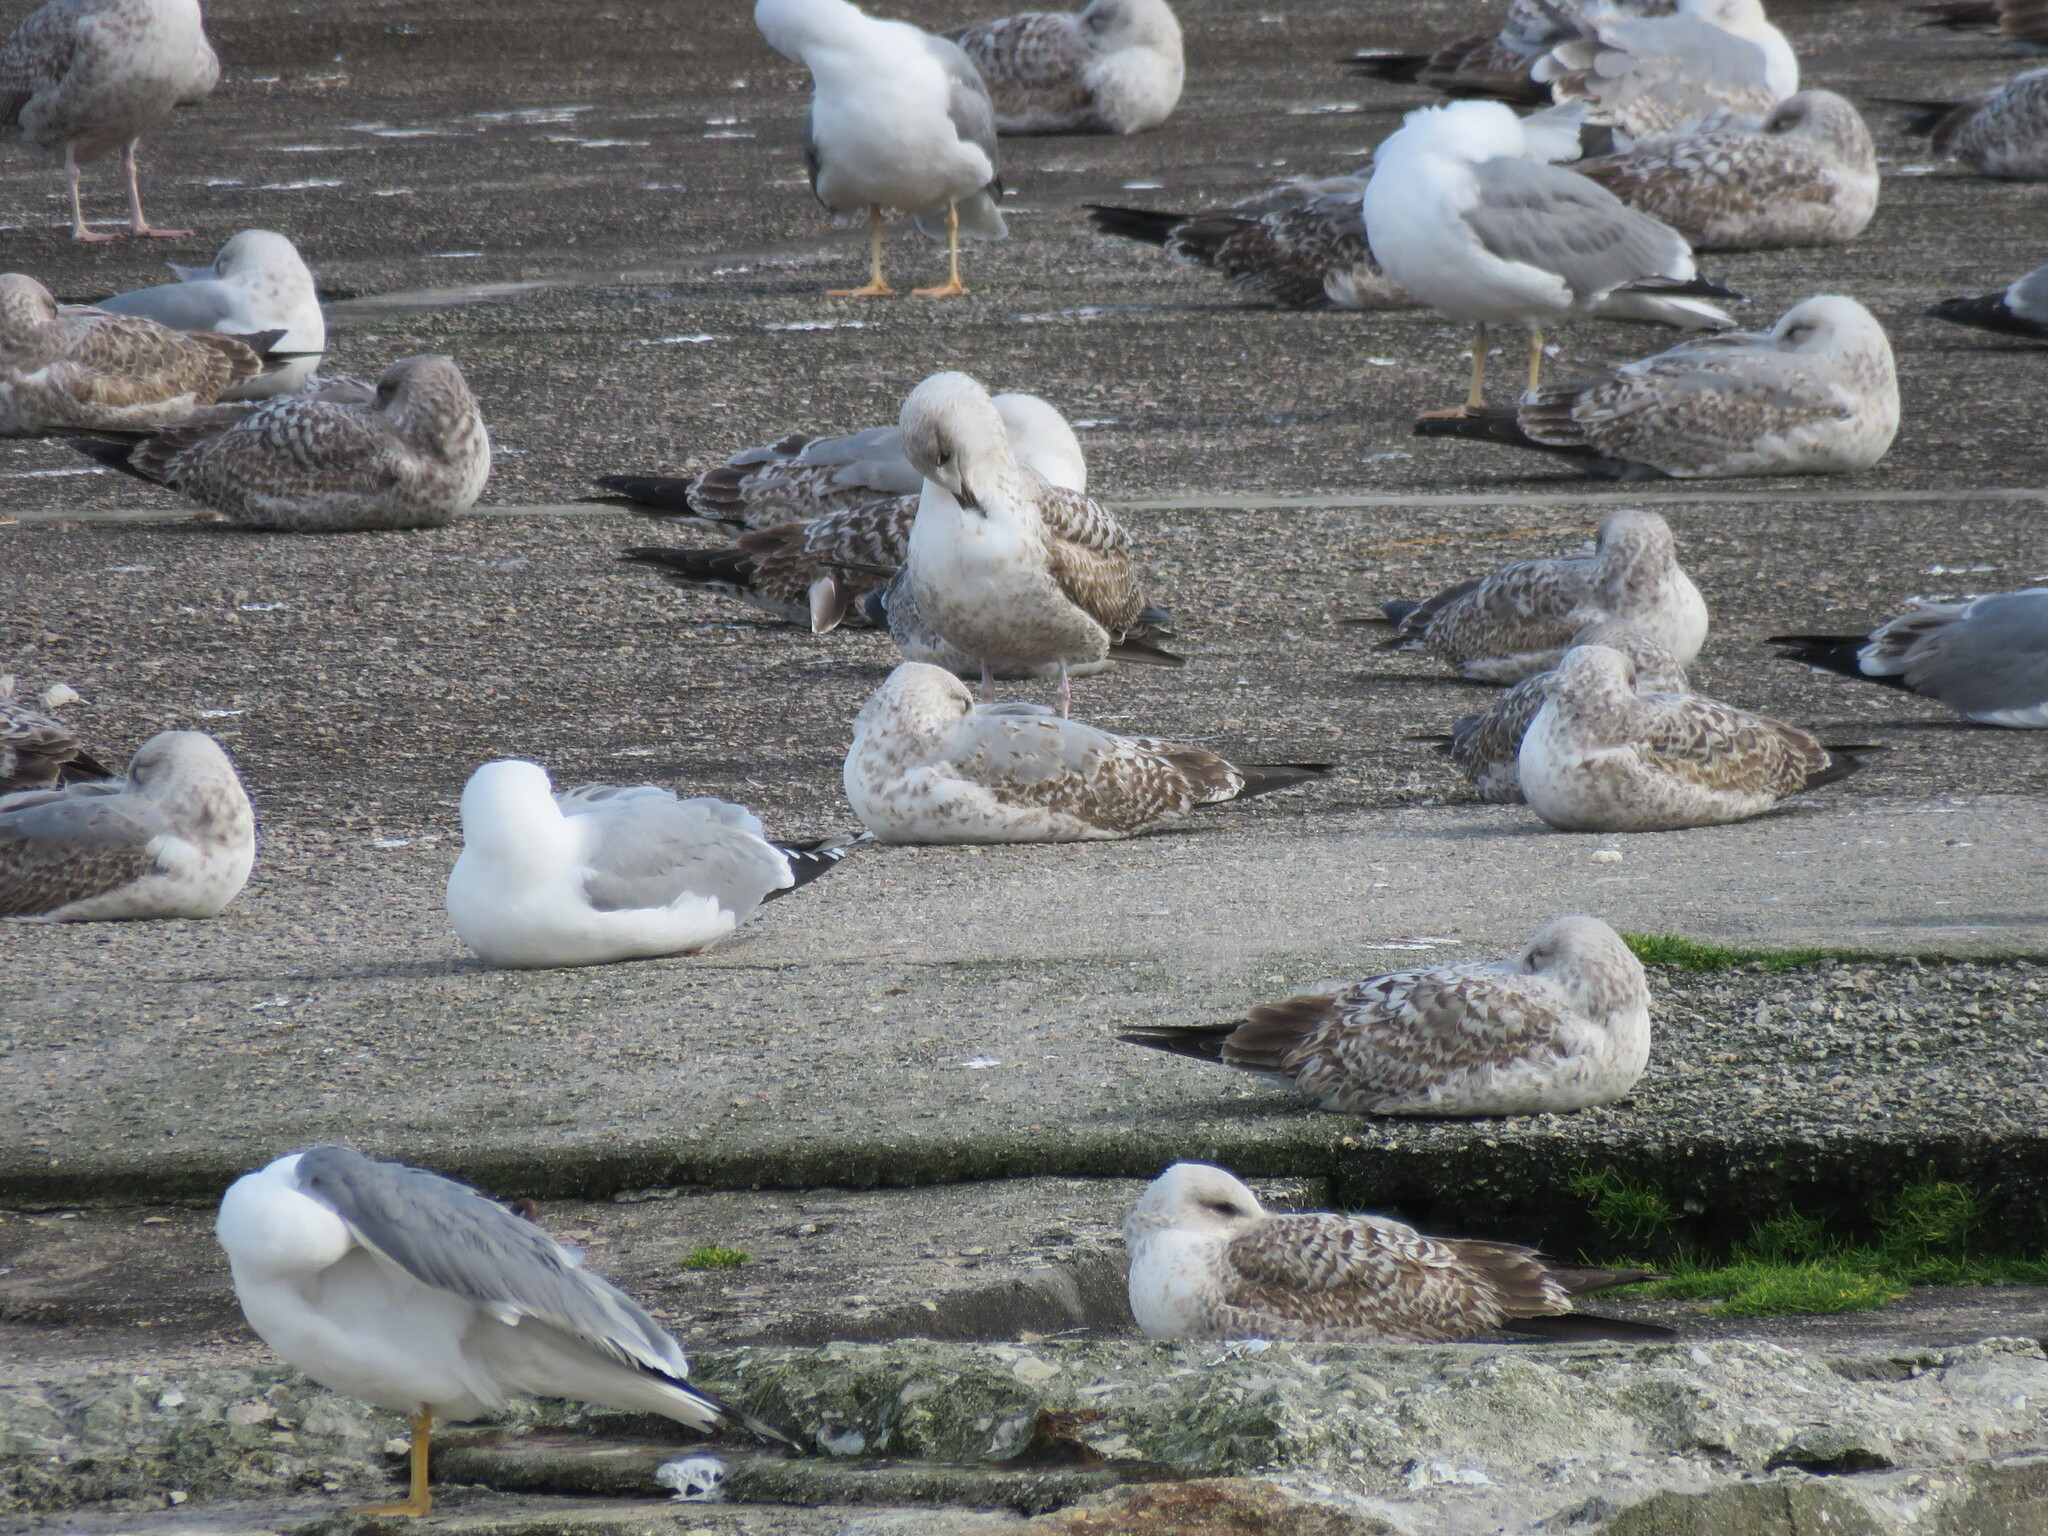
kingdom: Animalia
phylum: Chordata
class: Aves
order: Charadriiformes
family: Laridae
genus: Larus
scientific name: Larus michahellis
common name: Yellow-legged gull
